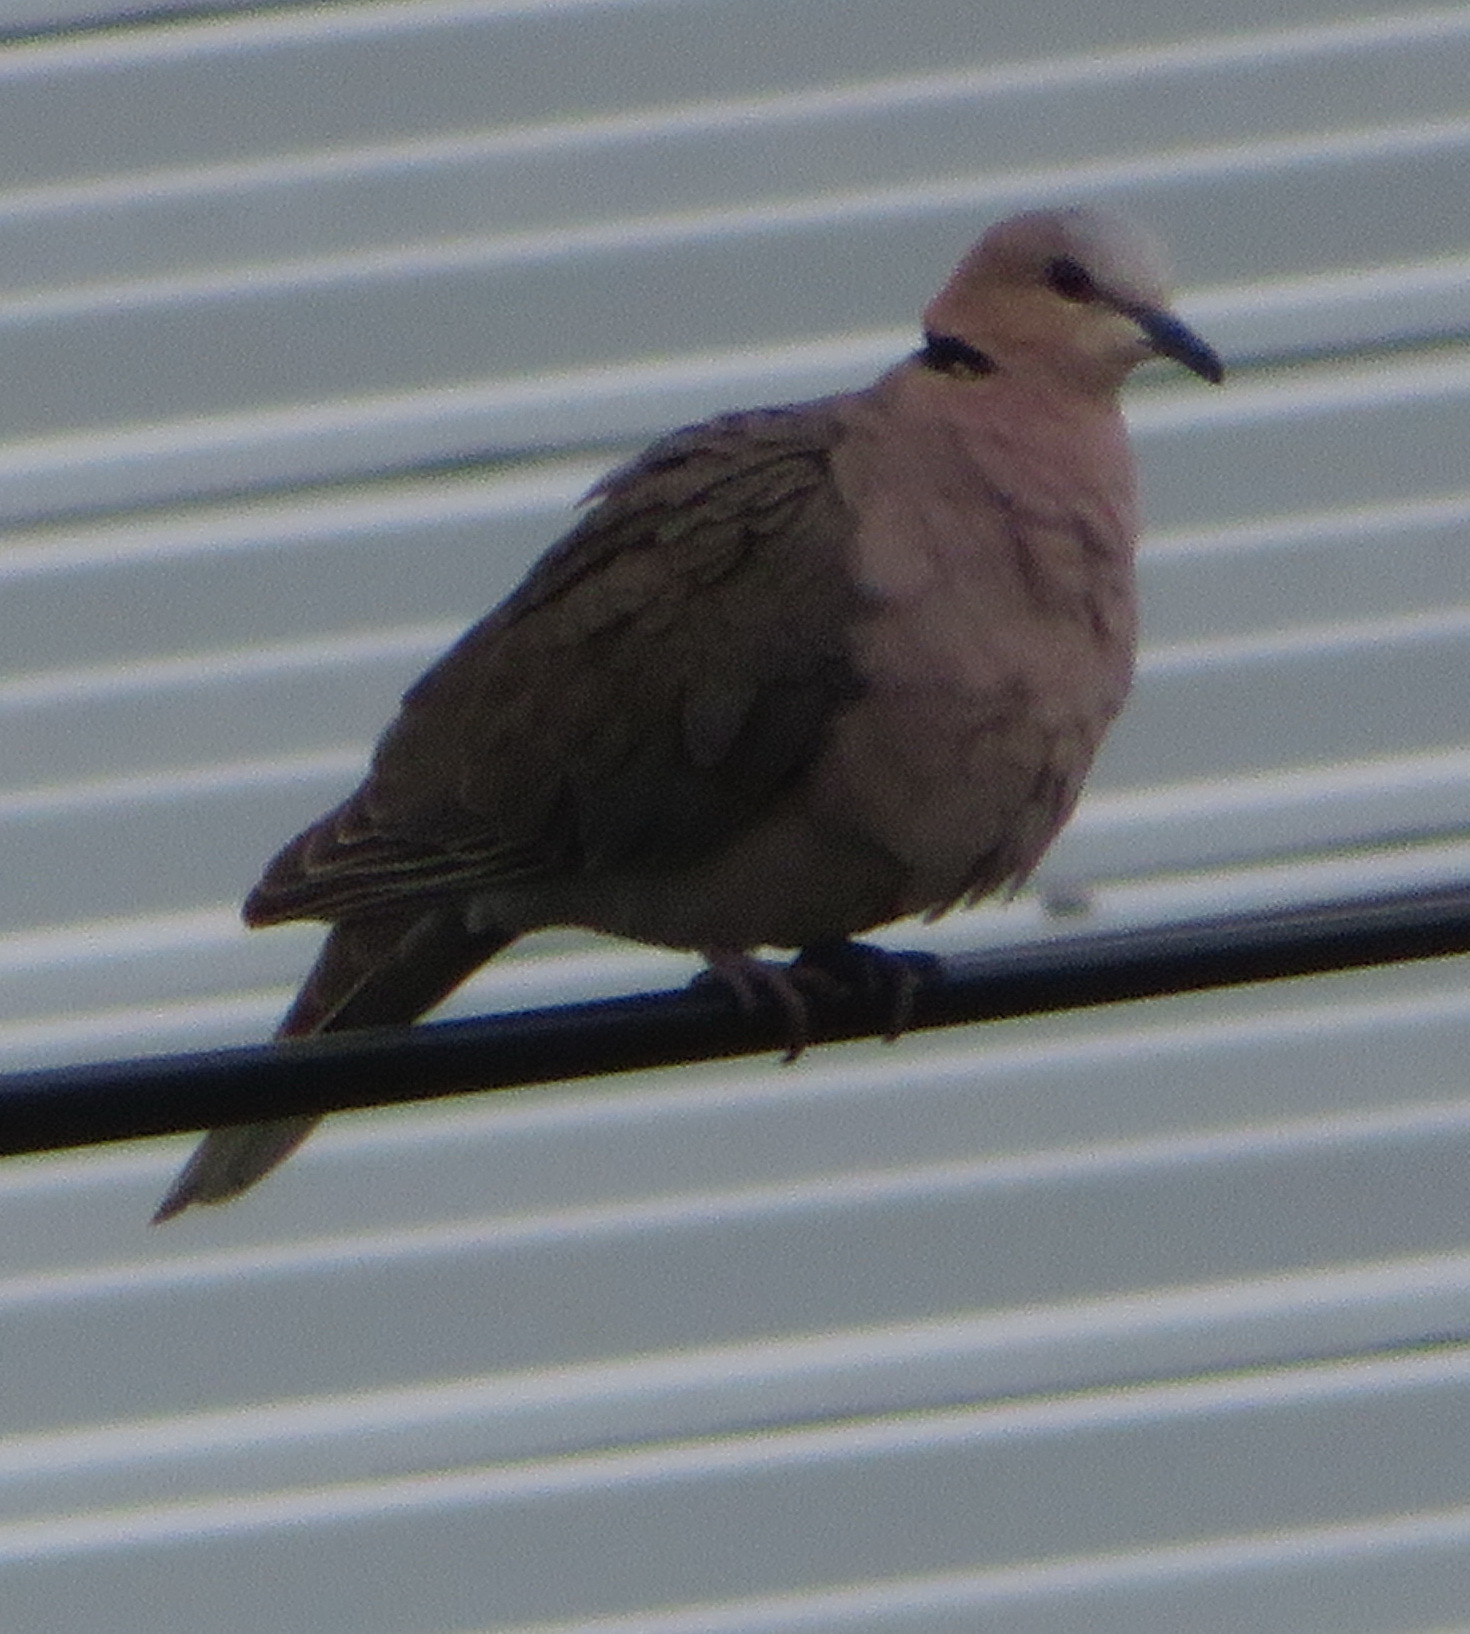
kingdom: Animalia
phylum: Chordata
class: Aves
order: Columbiformes
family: Columbidae
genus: Streptopelia
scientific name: Streptopelia semitorquata
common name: Red-eyed dove
